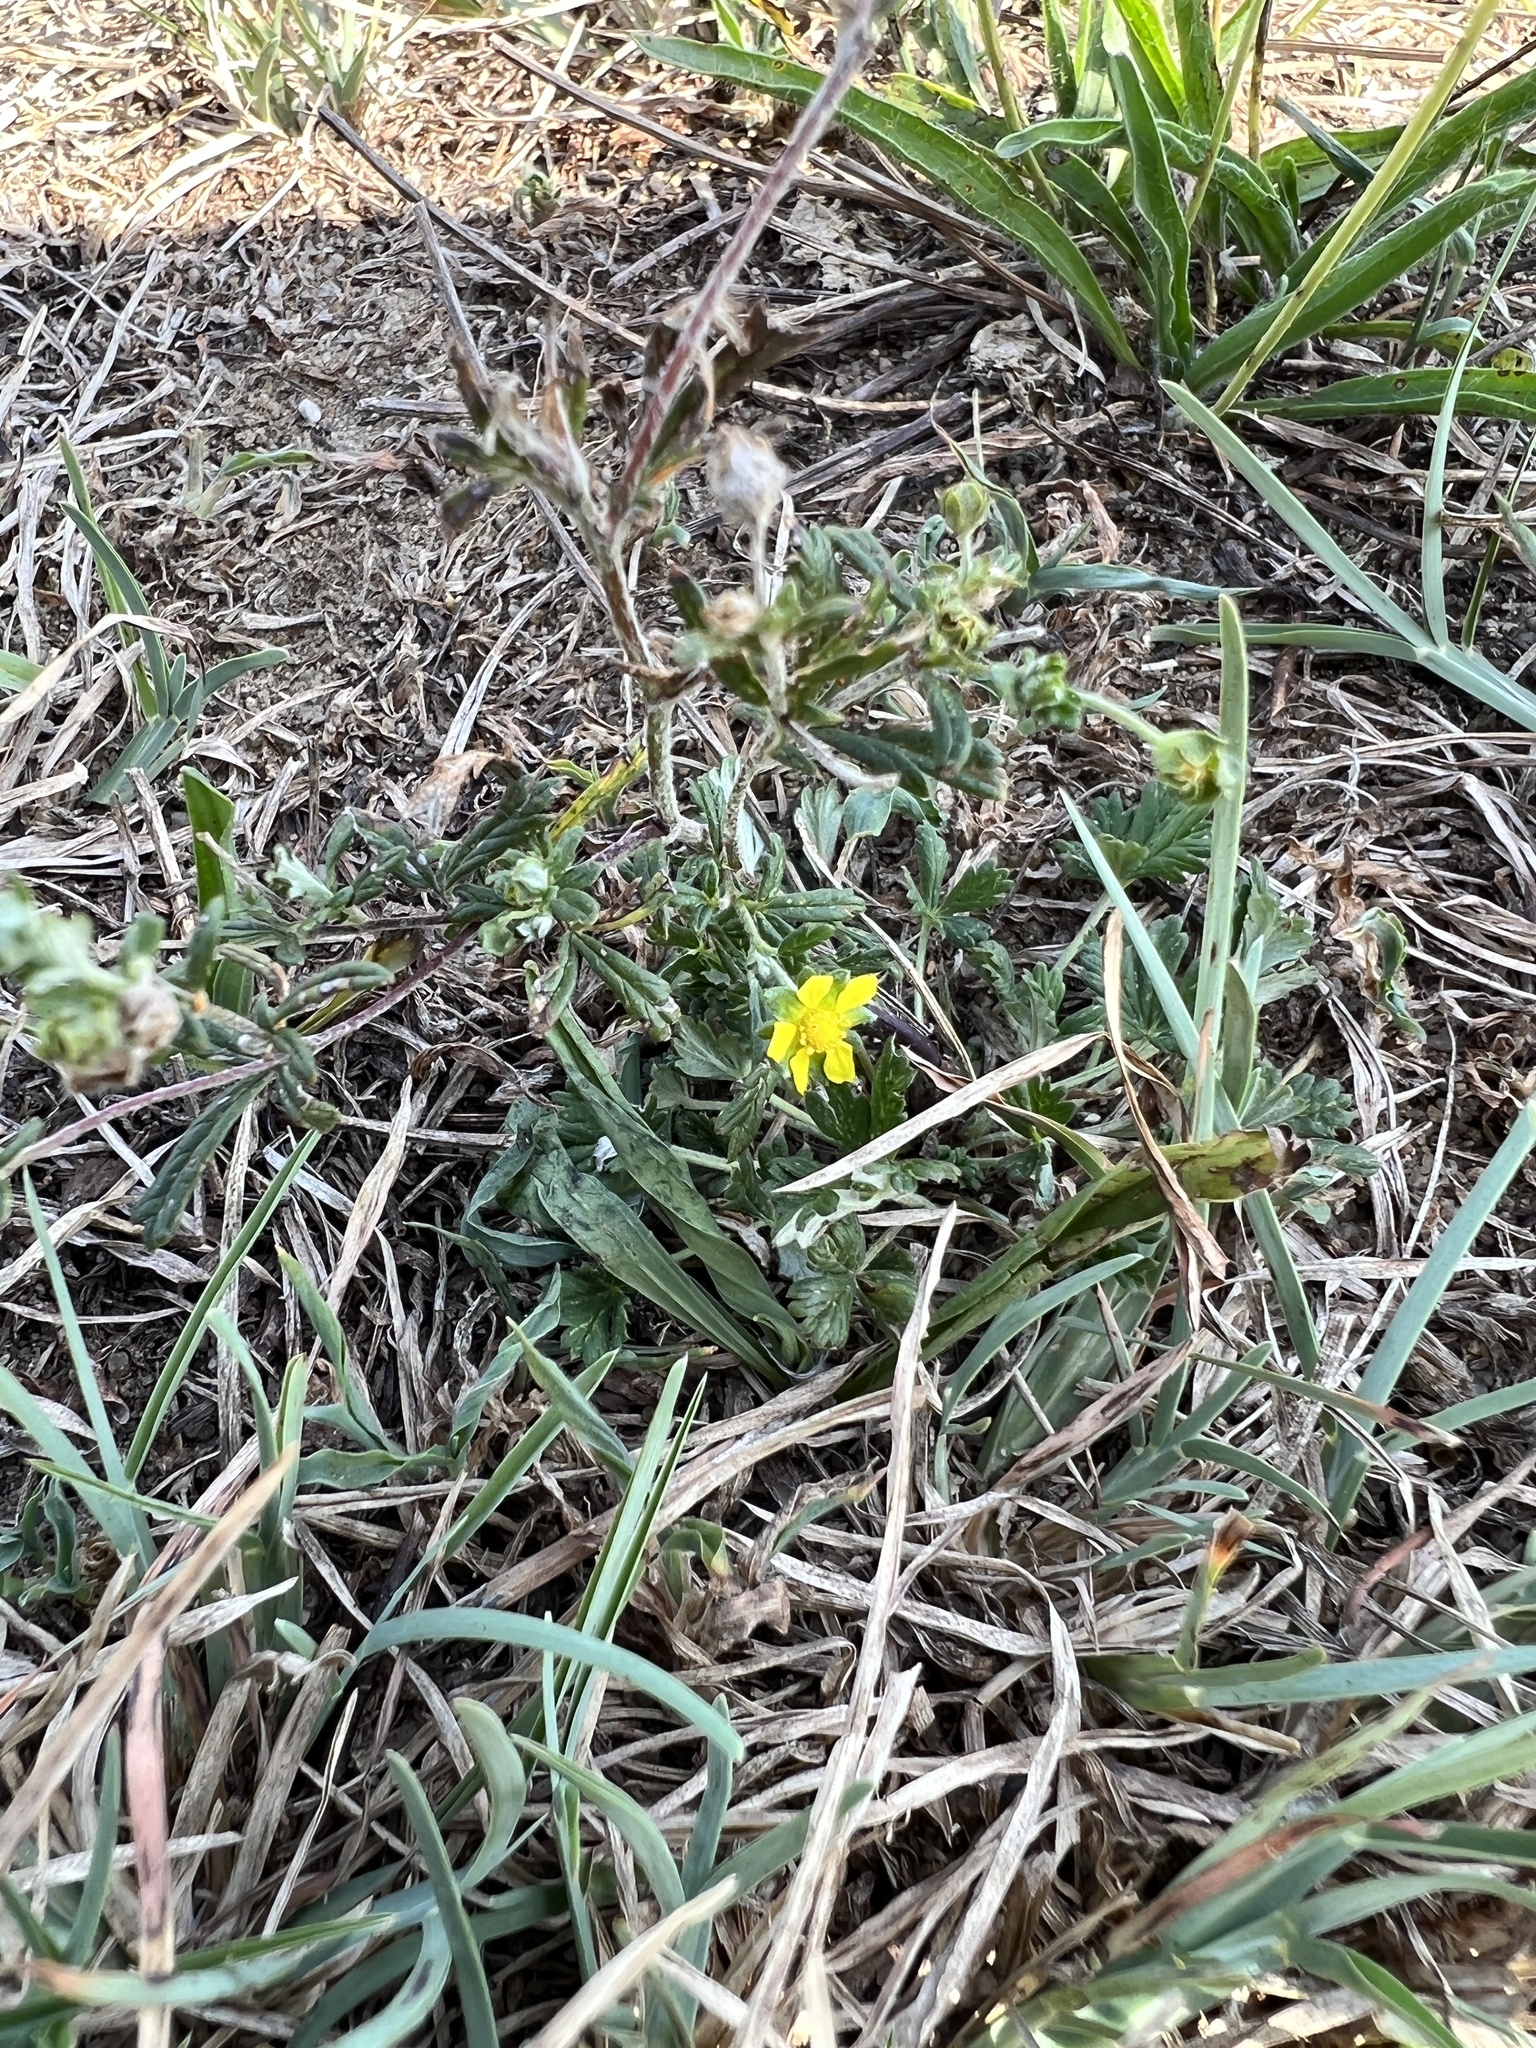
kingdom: Plantae
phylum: Tracheophyta
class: Magnoliopsida
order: Rosales
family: Rosaceae
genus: Potentilla
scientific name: Potentilla argentea
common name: Hoary cinquefoil
